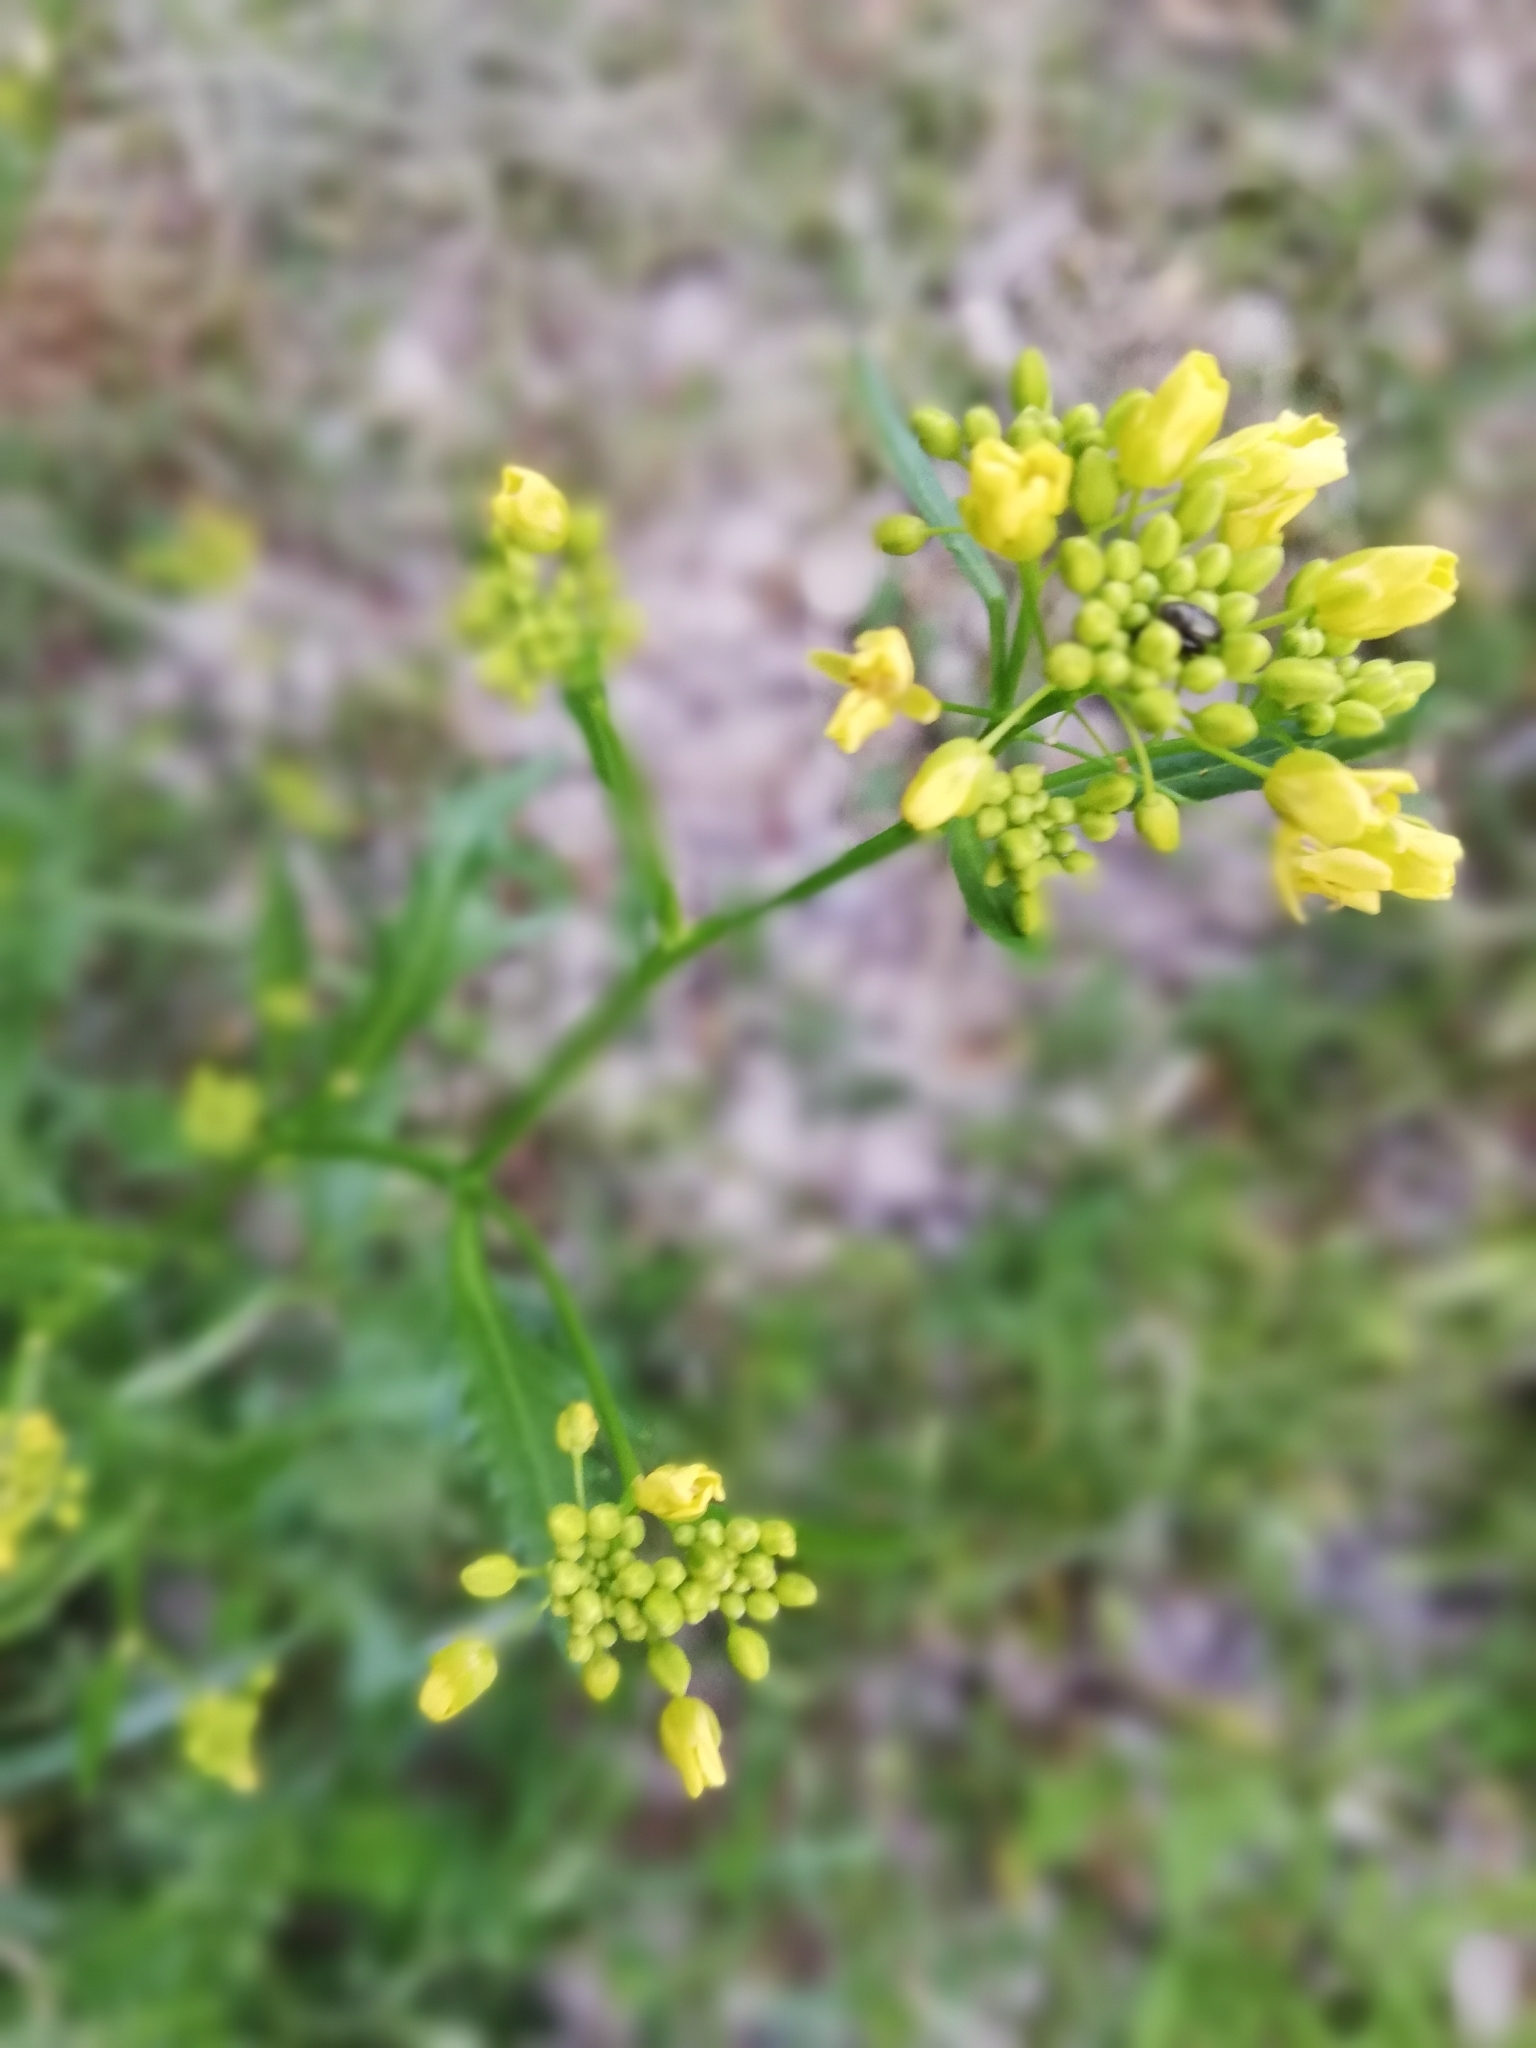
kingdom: Plantae
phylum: Tracheophyta
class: Magnoliopsida
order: Brassicales
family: Brassicaceae
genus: Rorippa
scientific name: Rorippa palustris
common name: Marsh yellow-cress
